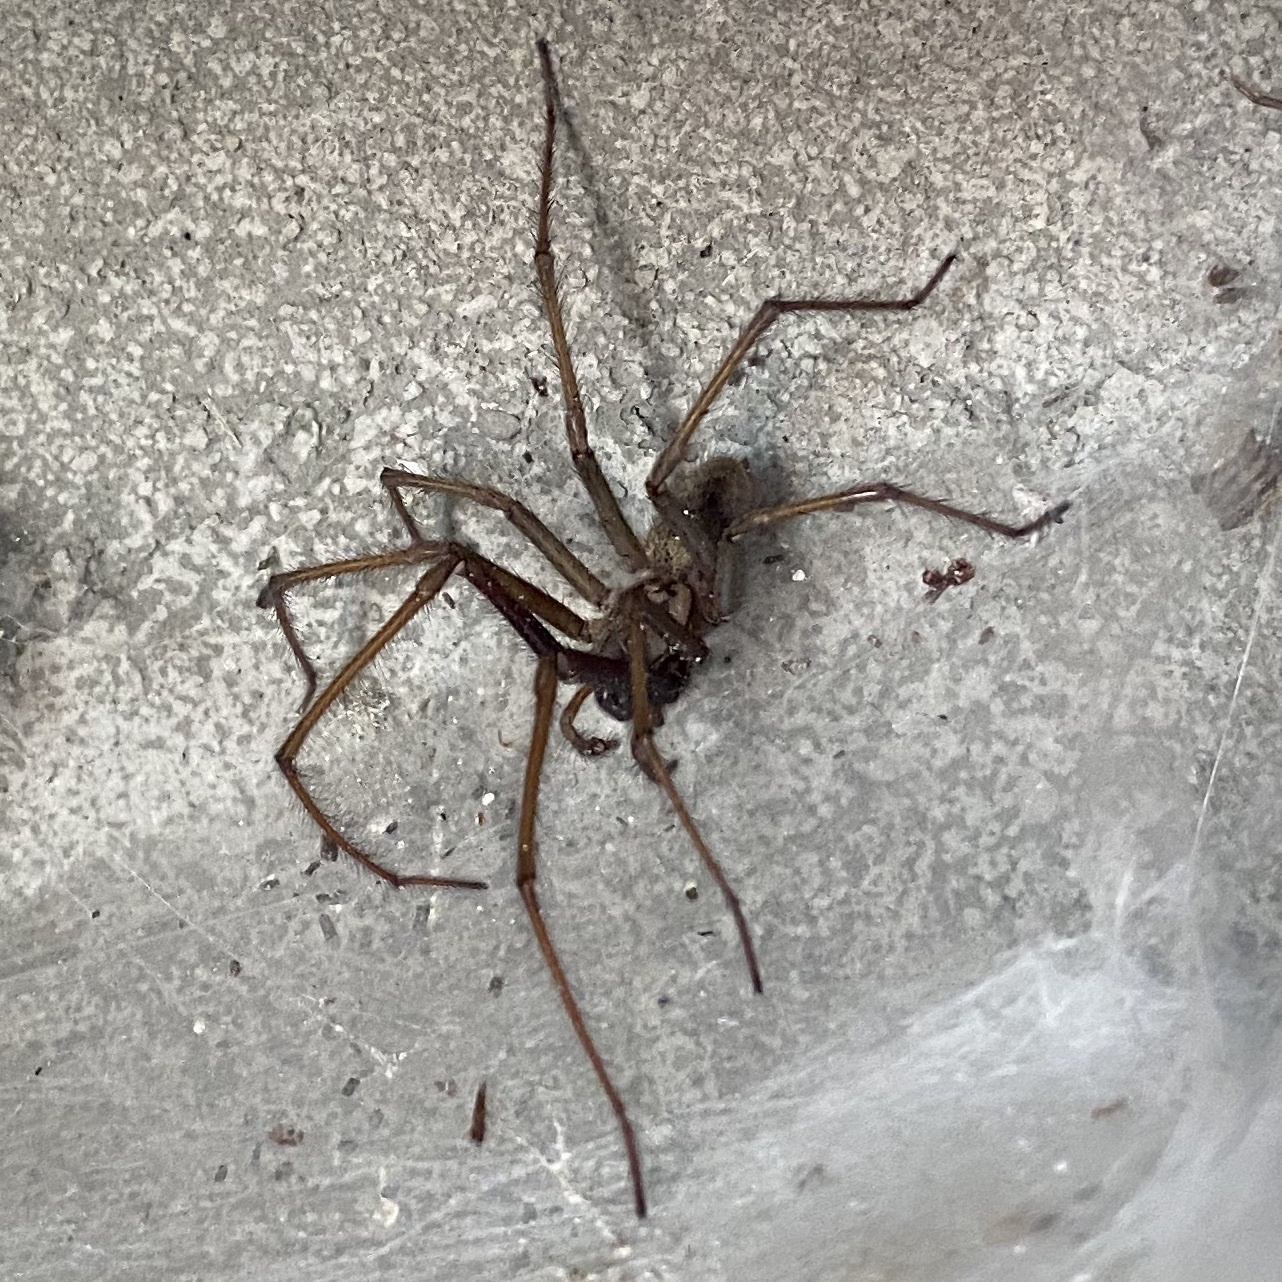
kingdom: Animalia
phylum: Arthropoda
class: Arachnida
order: Araneae
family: Agelenidae
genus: Eratigena
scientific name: Eratigena atrica
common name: Giant house spider
